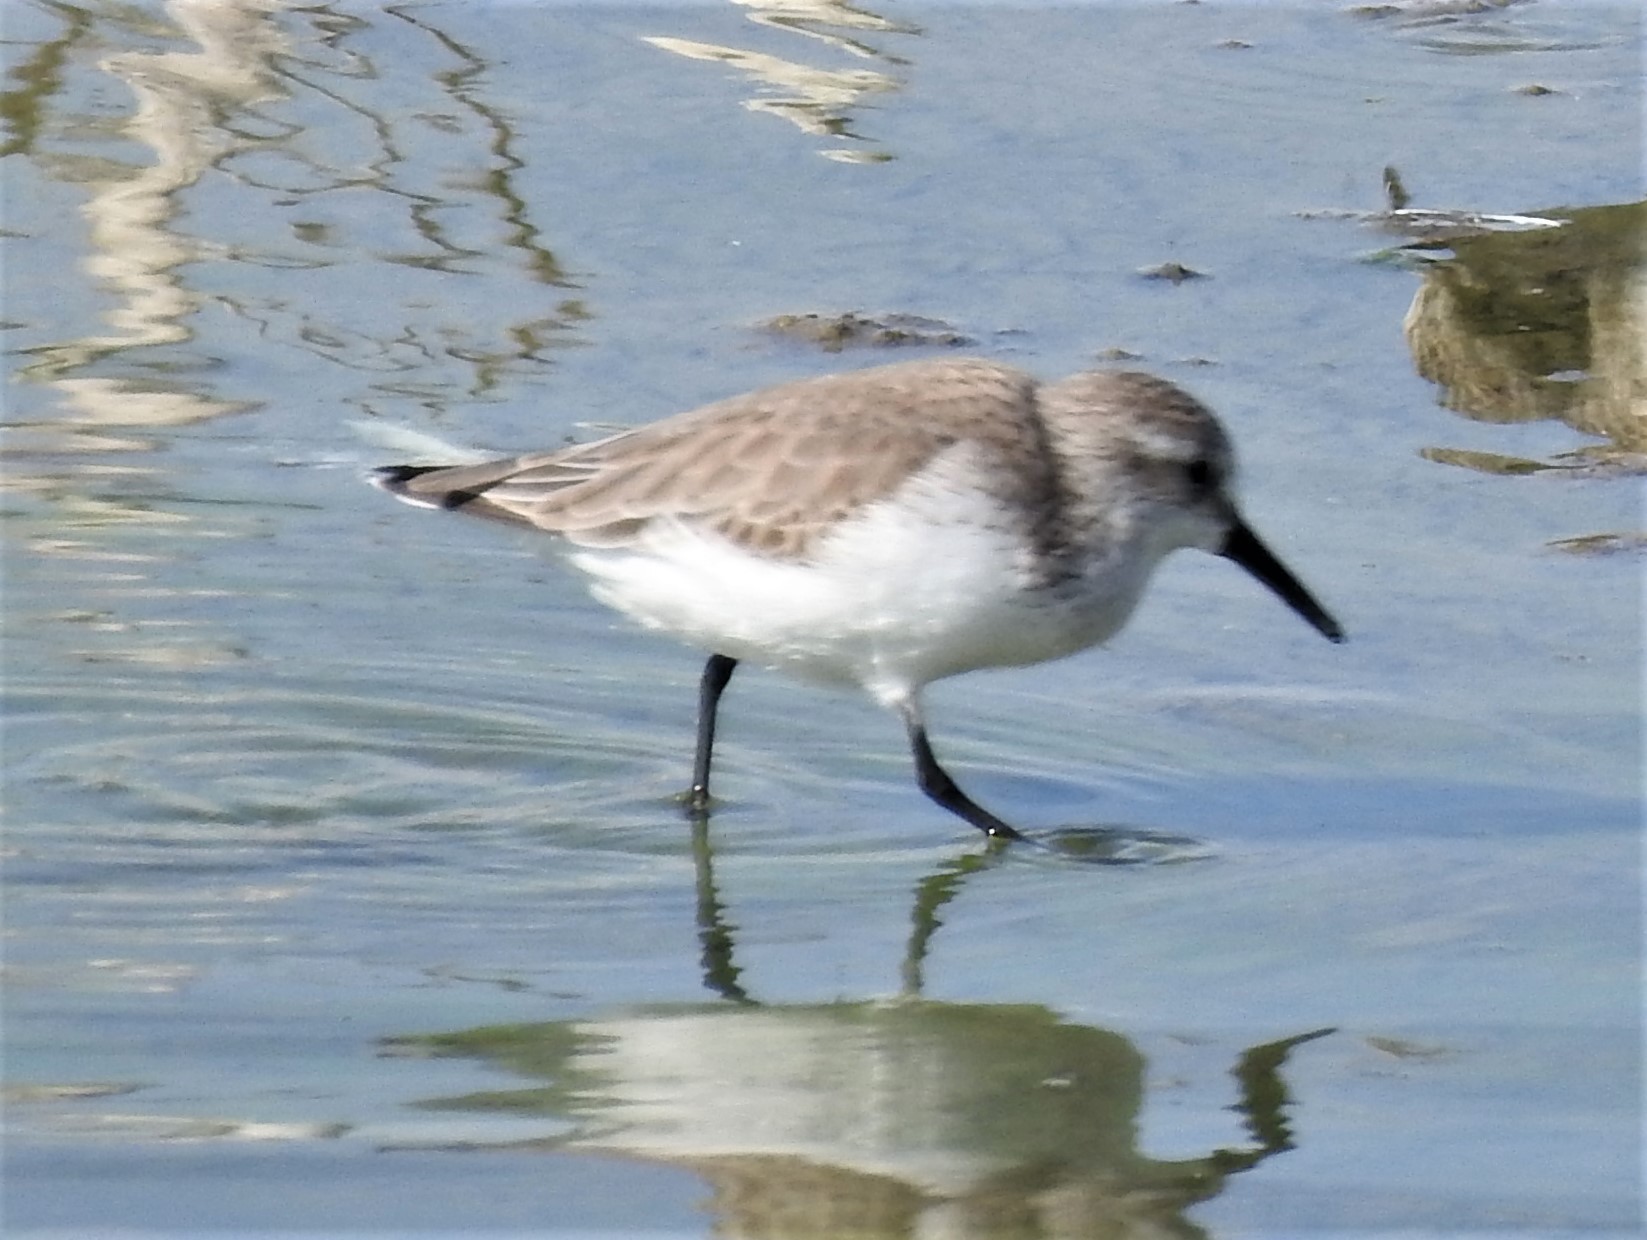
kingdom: Animalia
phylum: Chordata
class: Aves
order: Charadriiformes
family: Scolopacidae
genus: Calidris
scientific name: Calidris mauri
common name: Western sandpiper
